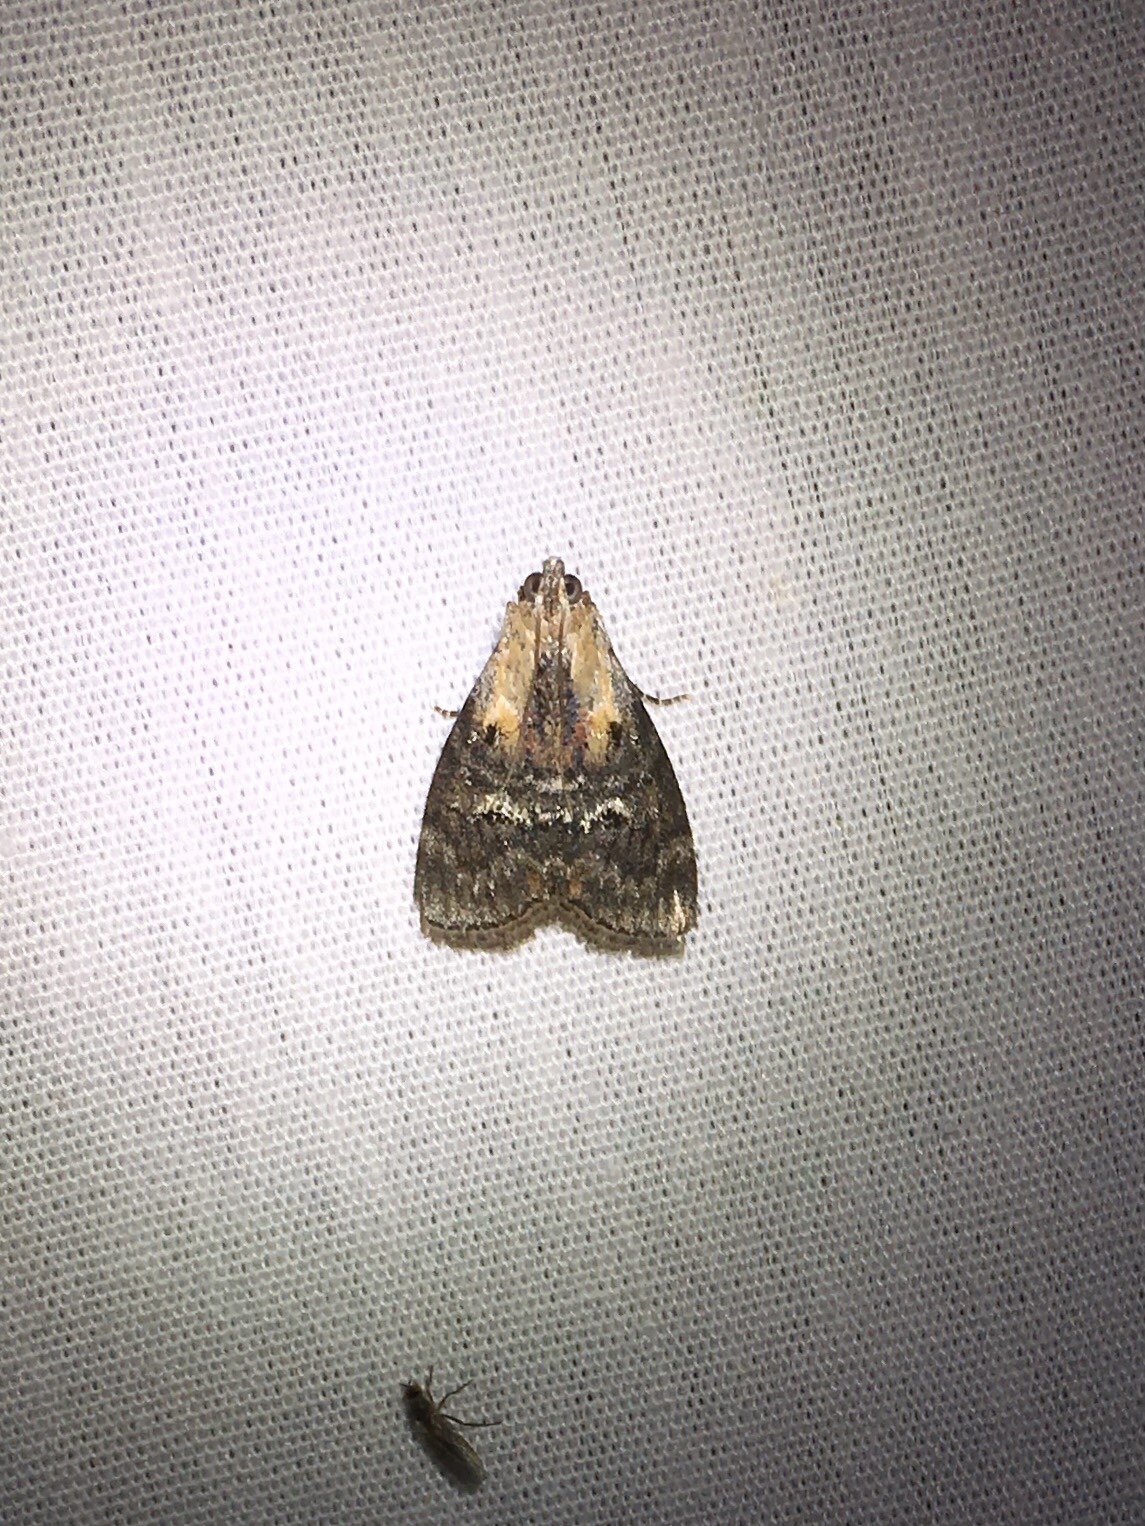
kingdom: Animalia
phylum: Arthropoda
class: Insecta
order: Lepidoptera
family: Pyralidae
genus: Pococera
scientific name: Pococera expandens
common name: Striped oak webworm moth
